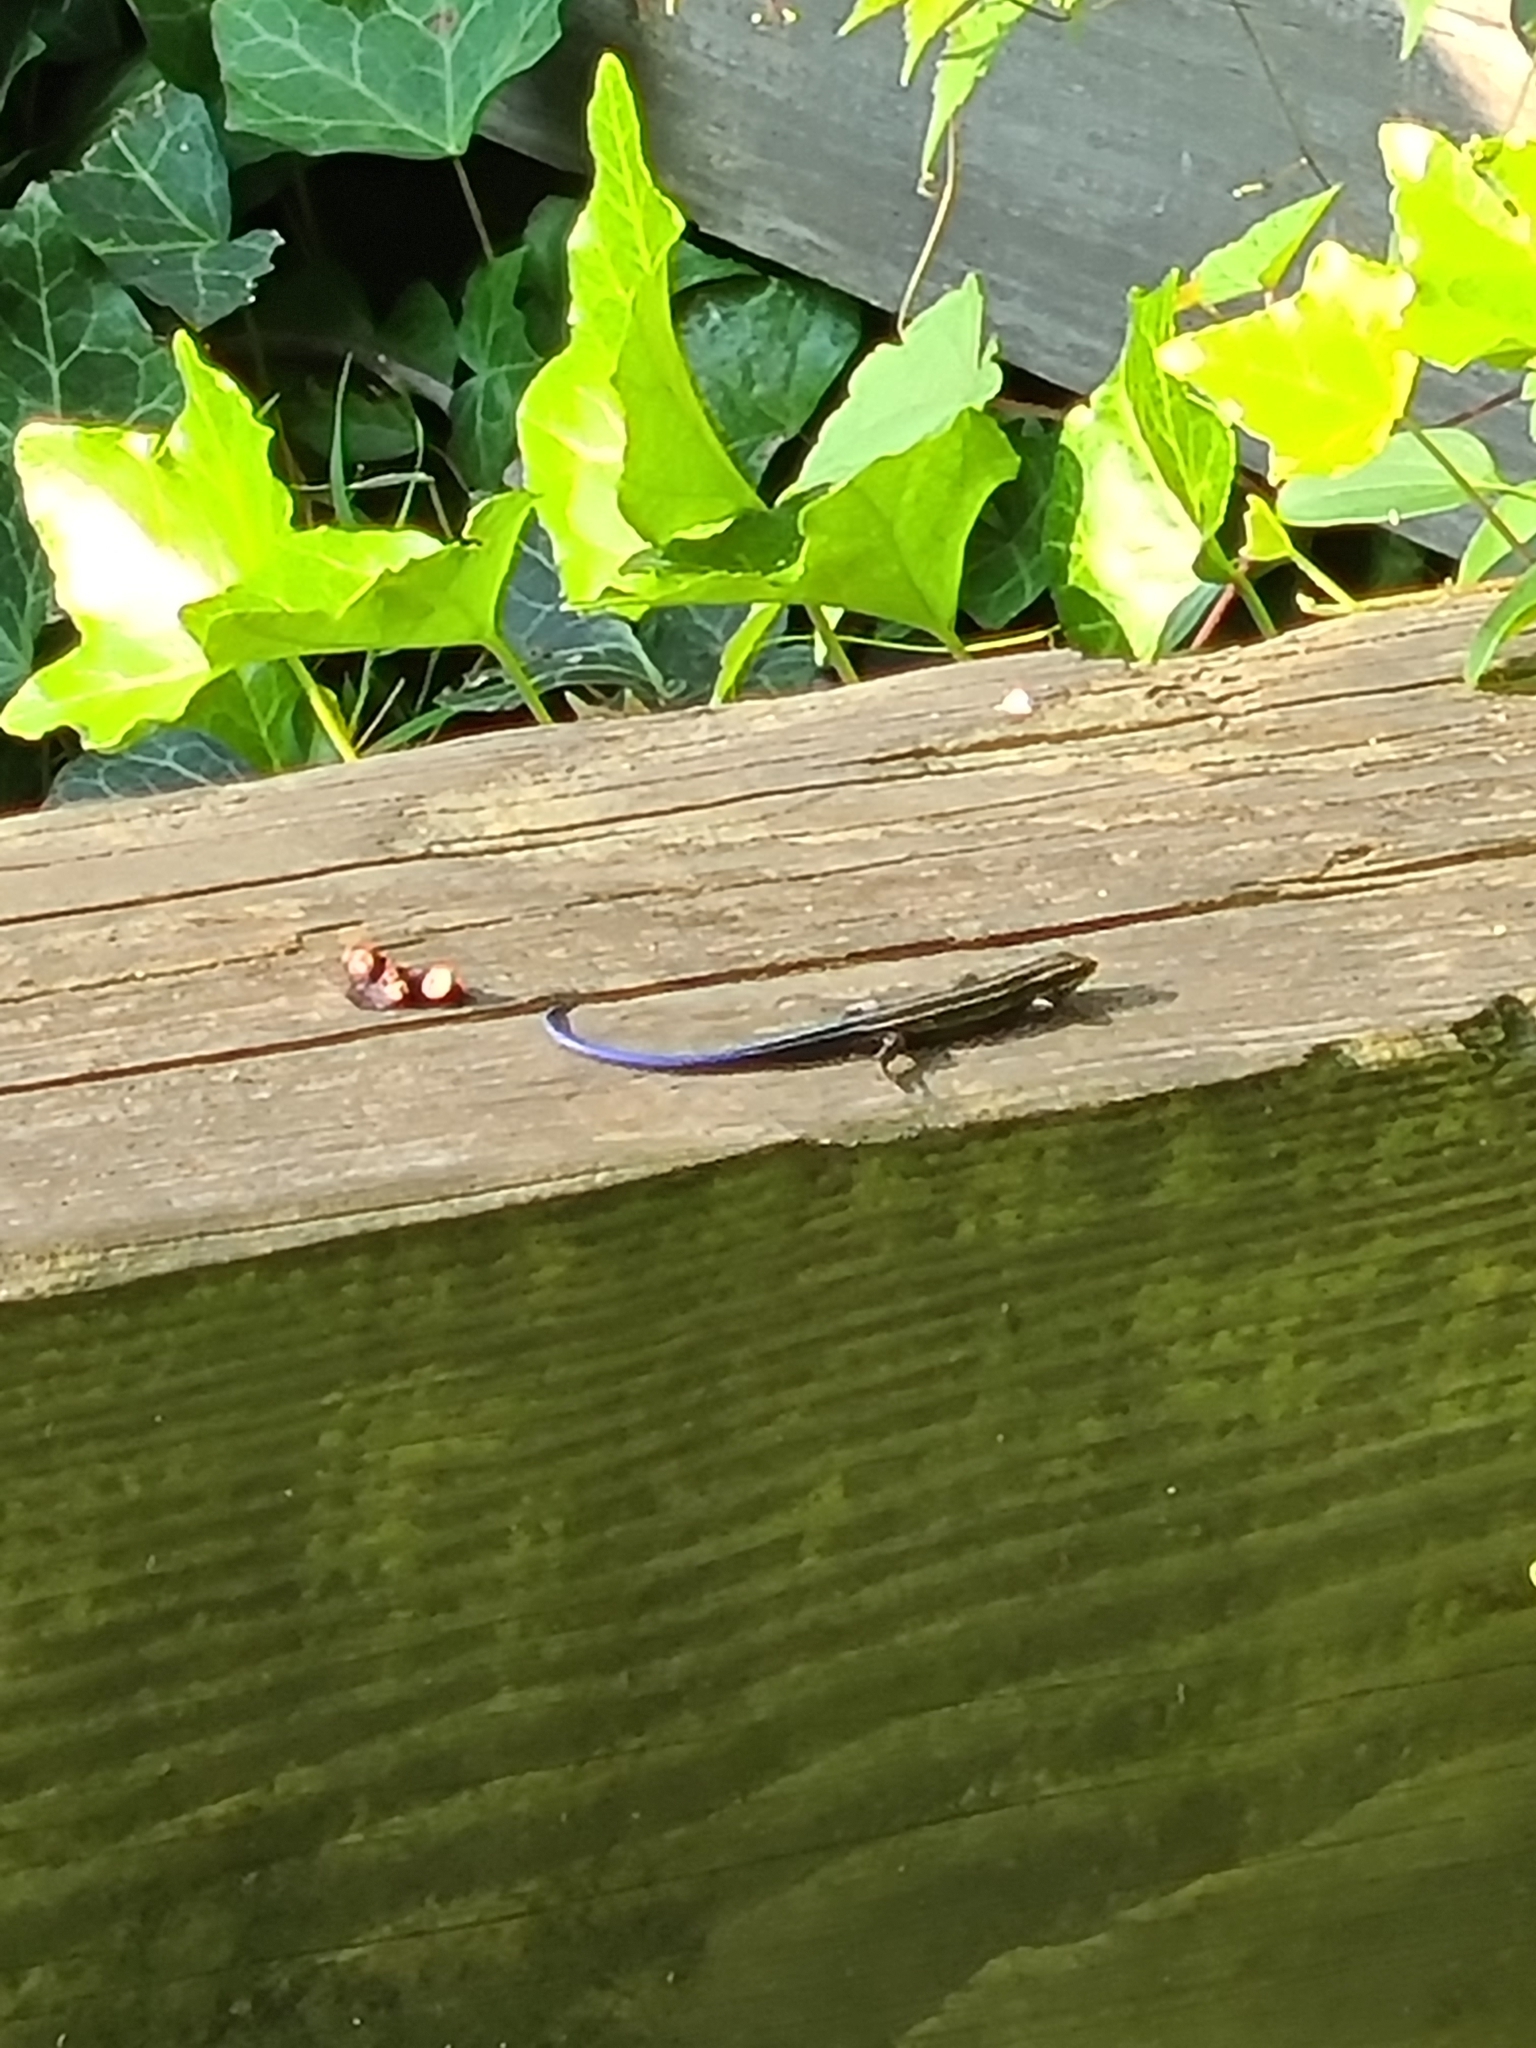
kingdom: Animalia
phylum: Chordata
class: Squamata
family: Scincidae
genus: Plestiodon
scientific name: Plestiodon fasciatus
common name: Five-lined skink
